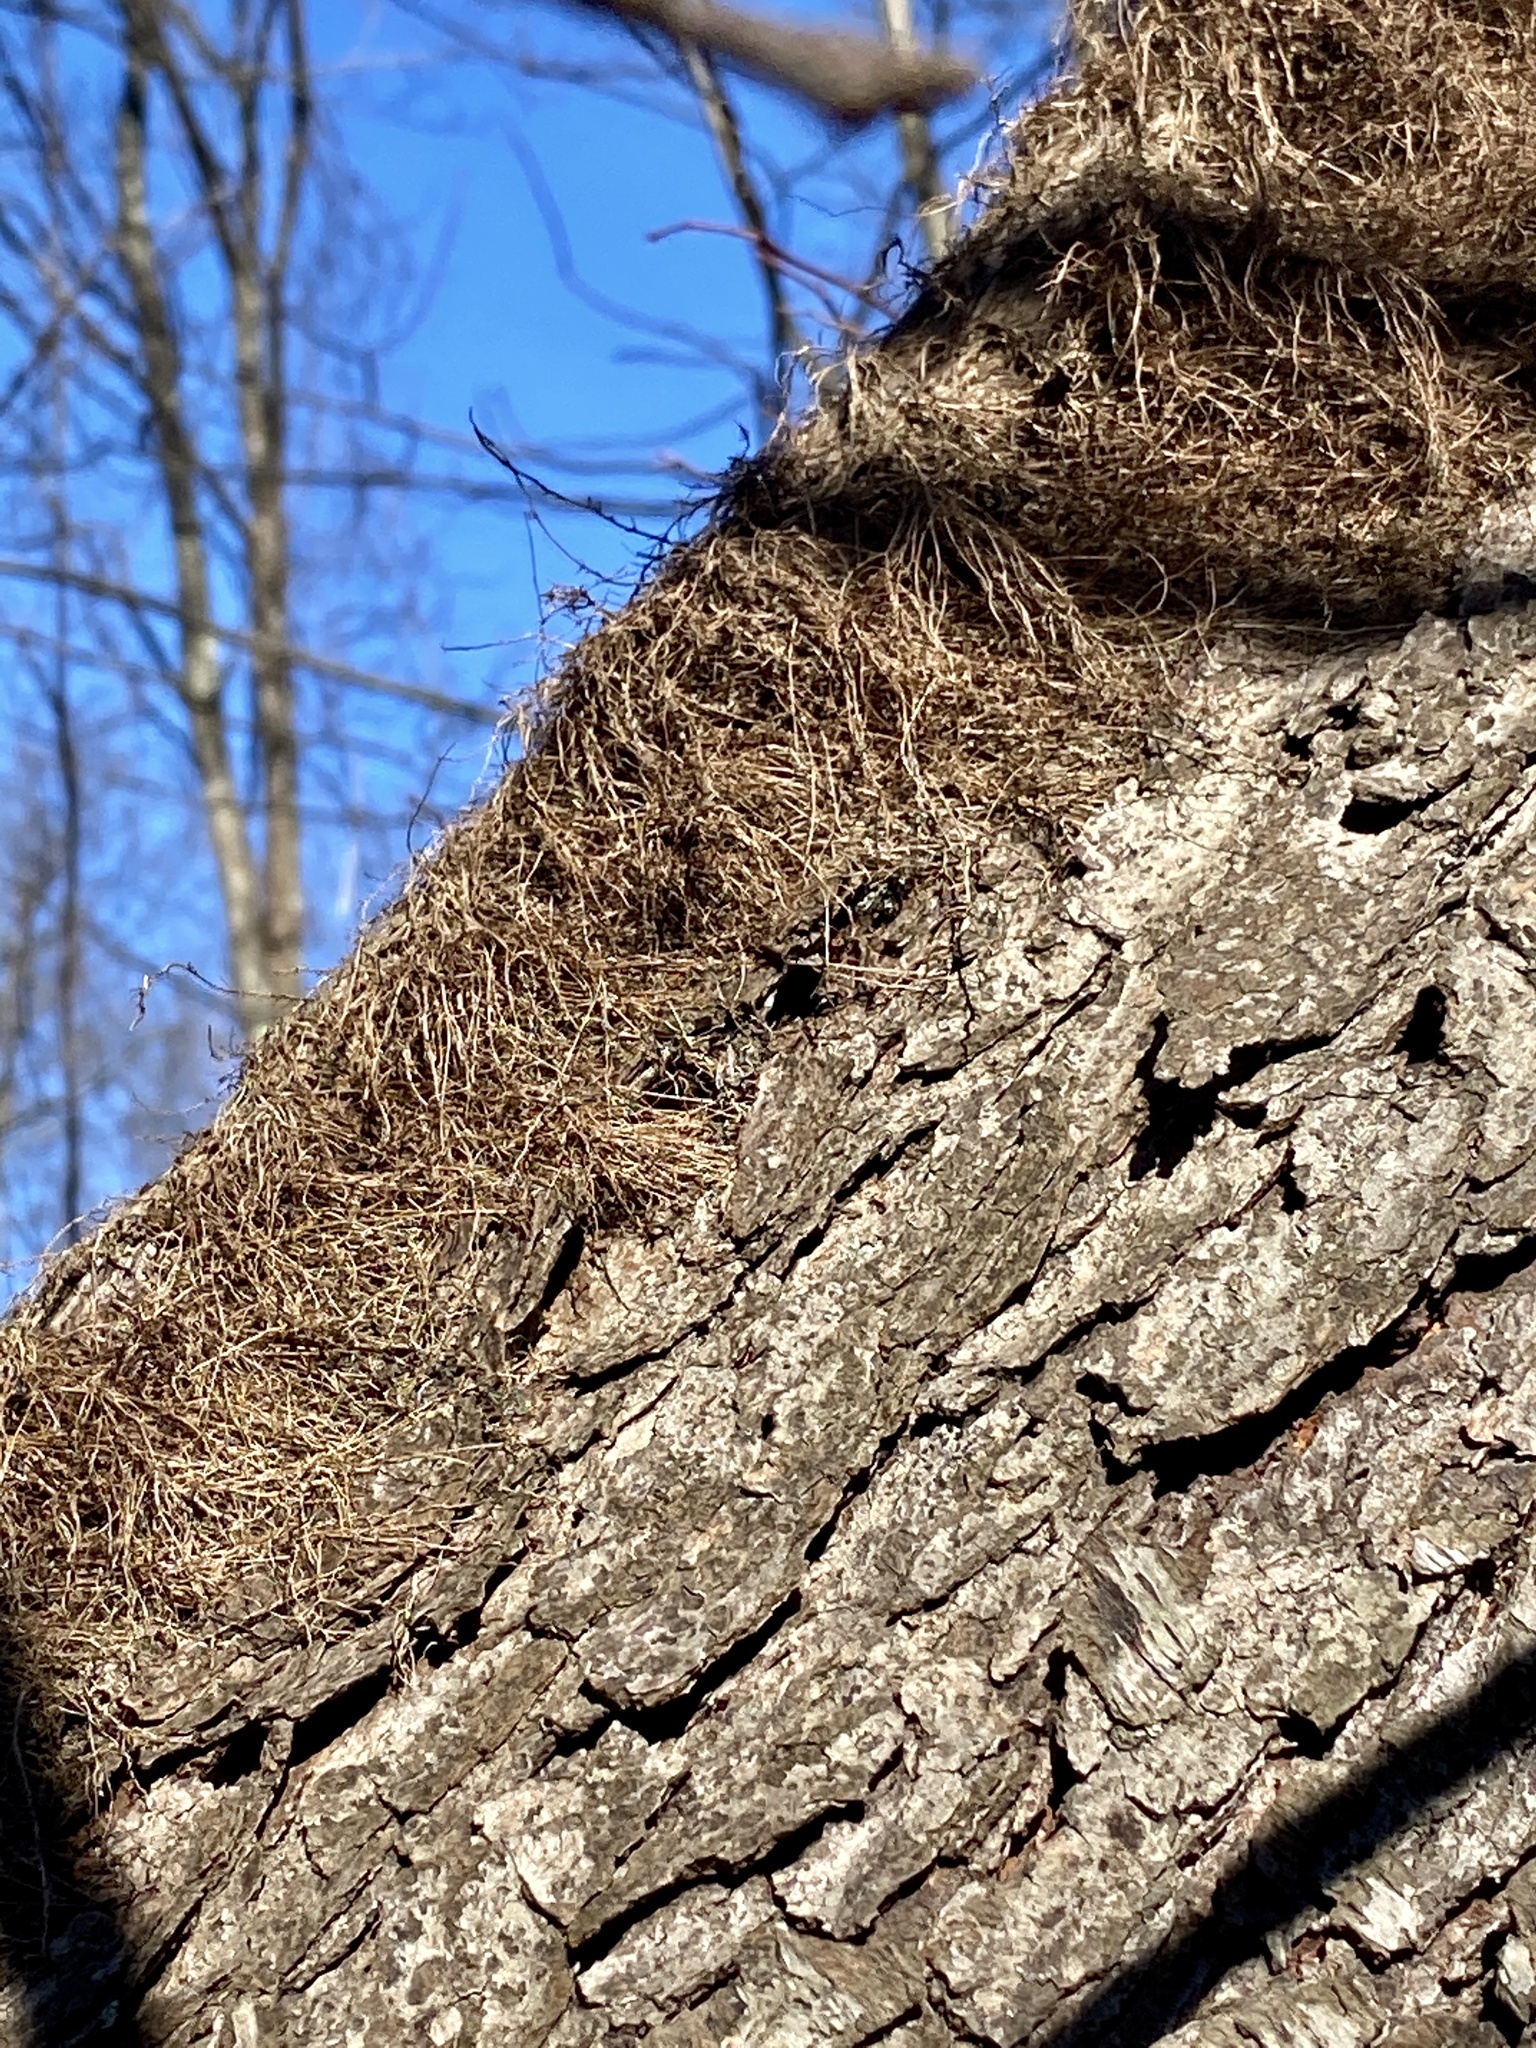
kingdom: Plantae
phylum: Tracheophyta
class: Magnoliopsida
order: Sapindales
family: Anacardiaceae
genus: Toxicodendron
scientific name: Toxicodendron radicans
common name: Poison ivy
